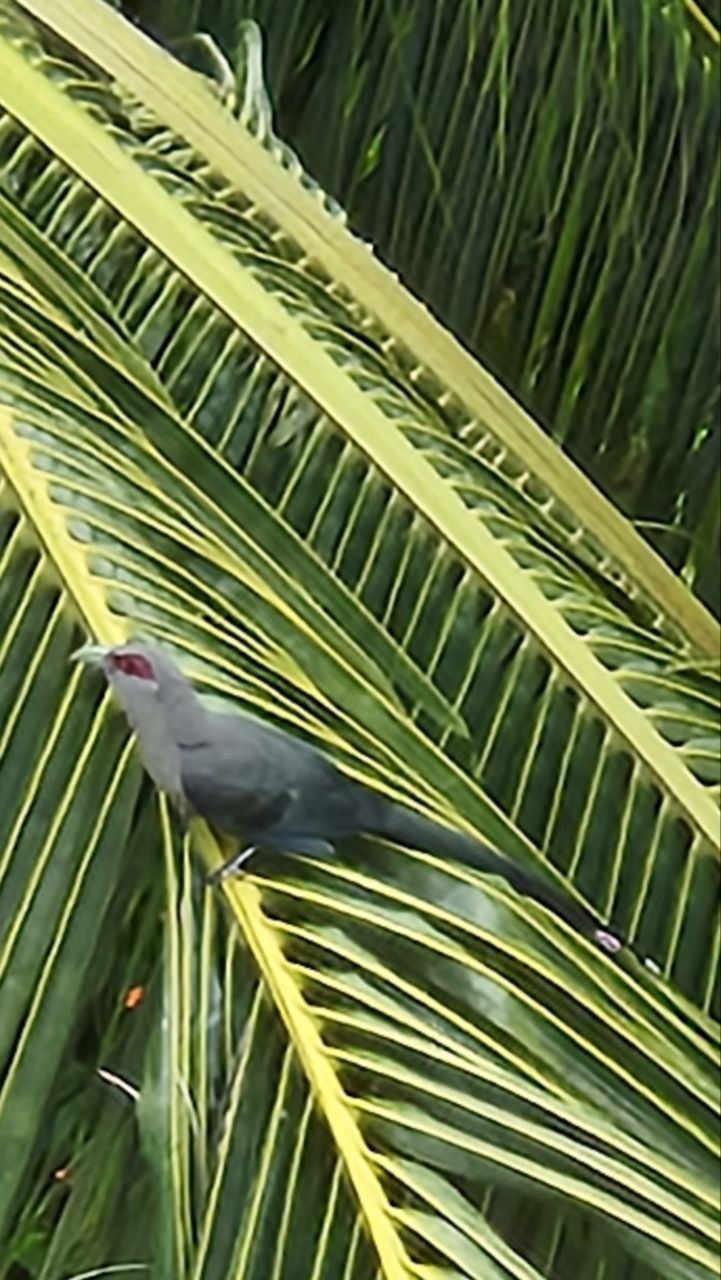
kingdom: Animalia
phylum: Chordata
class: Aves
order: Cuculiformes
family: Cuculidae
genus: Rhopodytes
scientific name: Rhopodytes tristis
